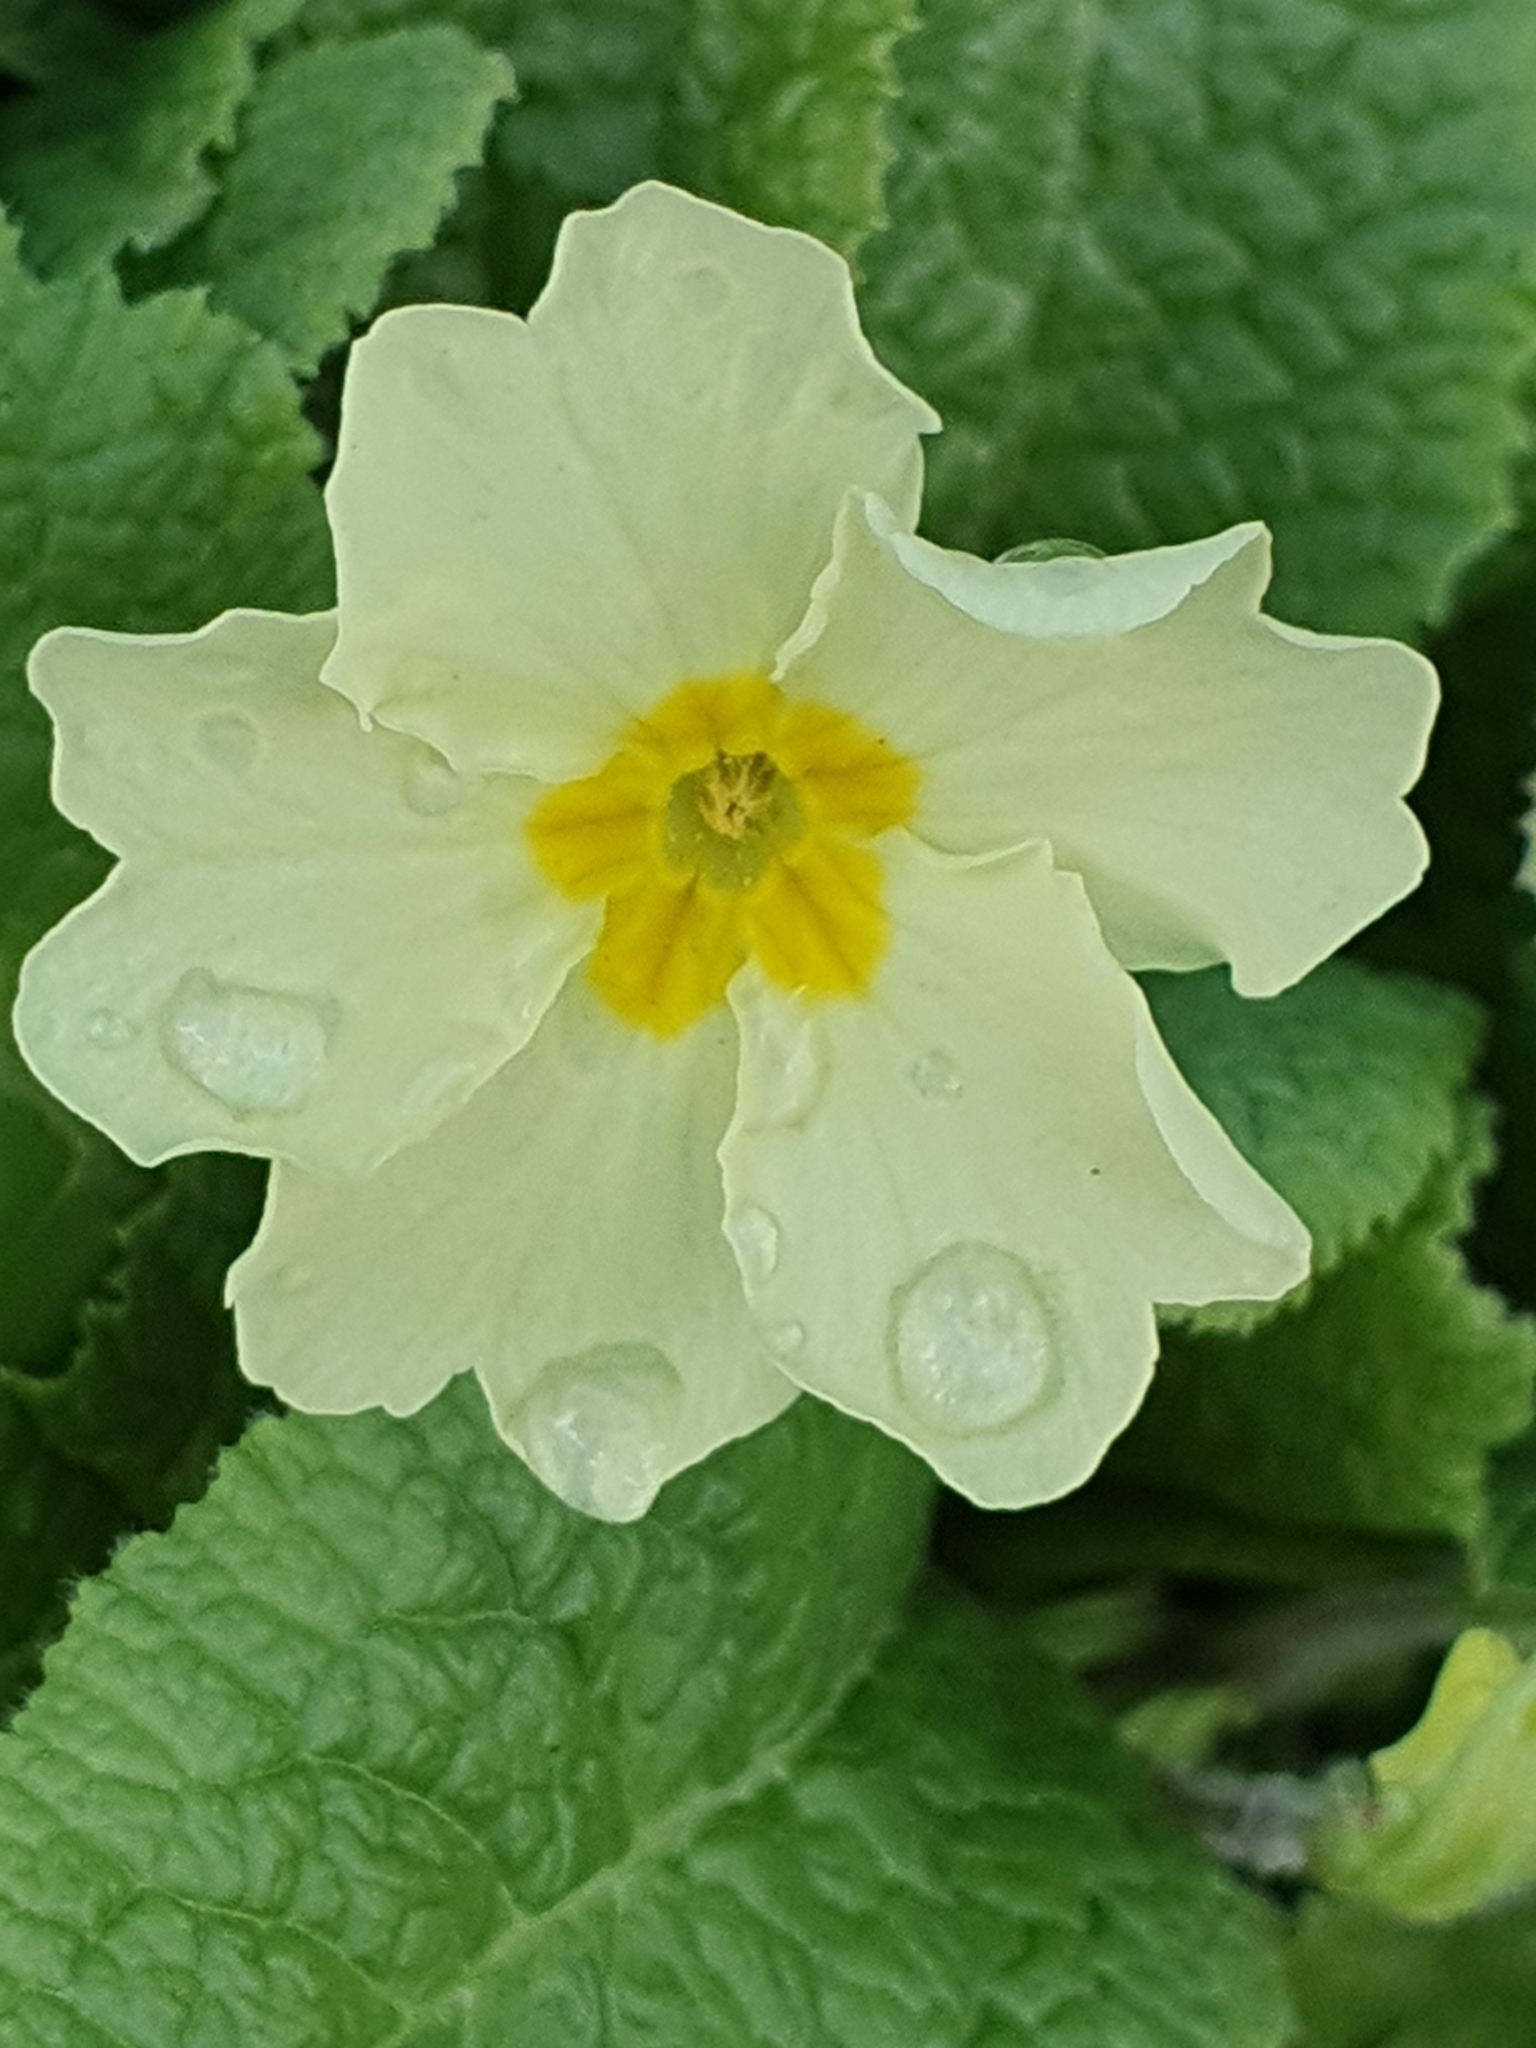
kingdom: Plantae
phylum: Tracheophyta
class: Magnoliopsida
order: Ericales
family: Primulaceae
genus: Primula
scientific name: Primula vulgaris
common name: Primrose
